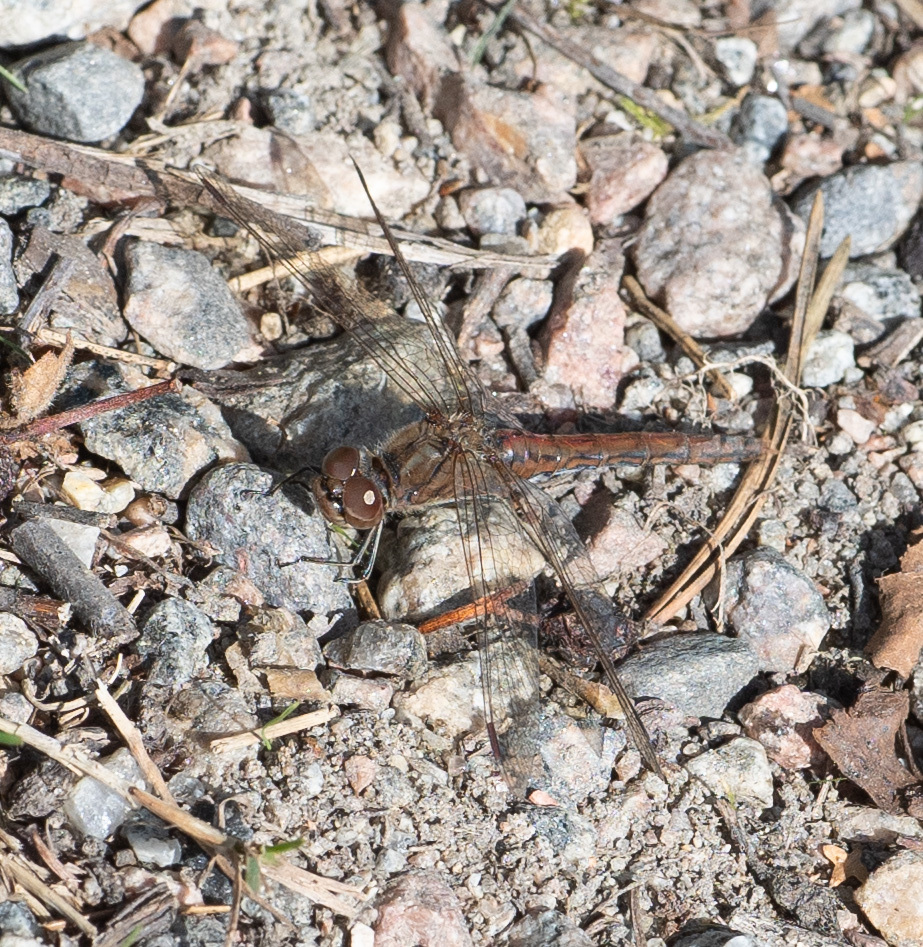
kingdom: Animalia
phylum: Arthropoda
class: Insecta
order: Odonata
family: Libellulidae
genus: Sympetrum
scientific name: Sympetrum vulgatum
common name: Vagrant darter
